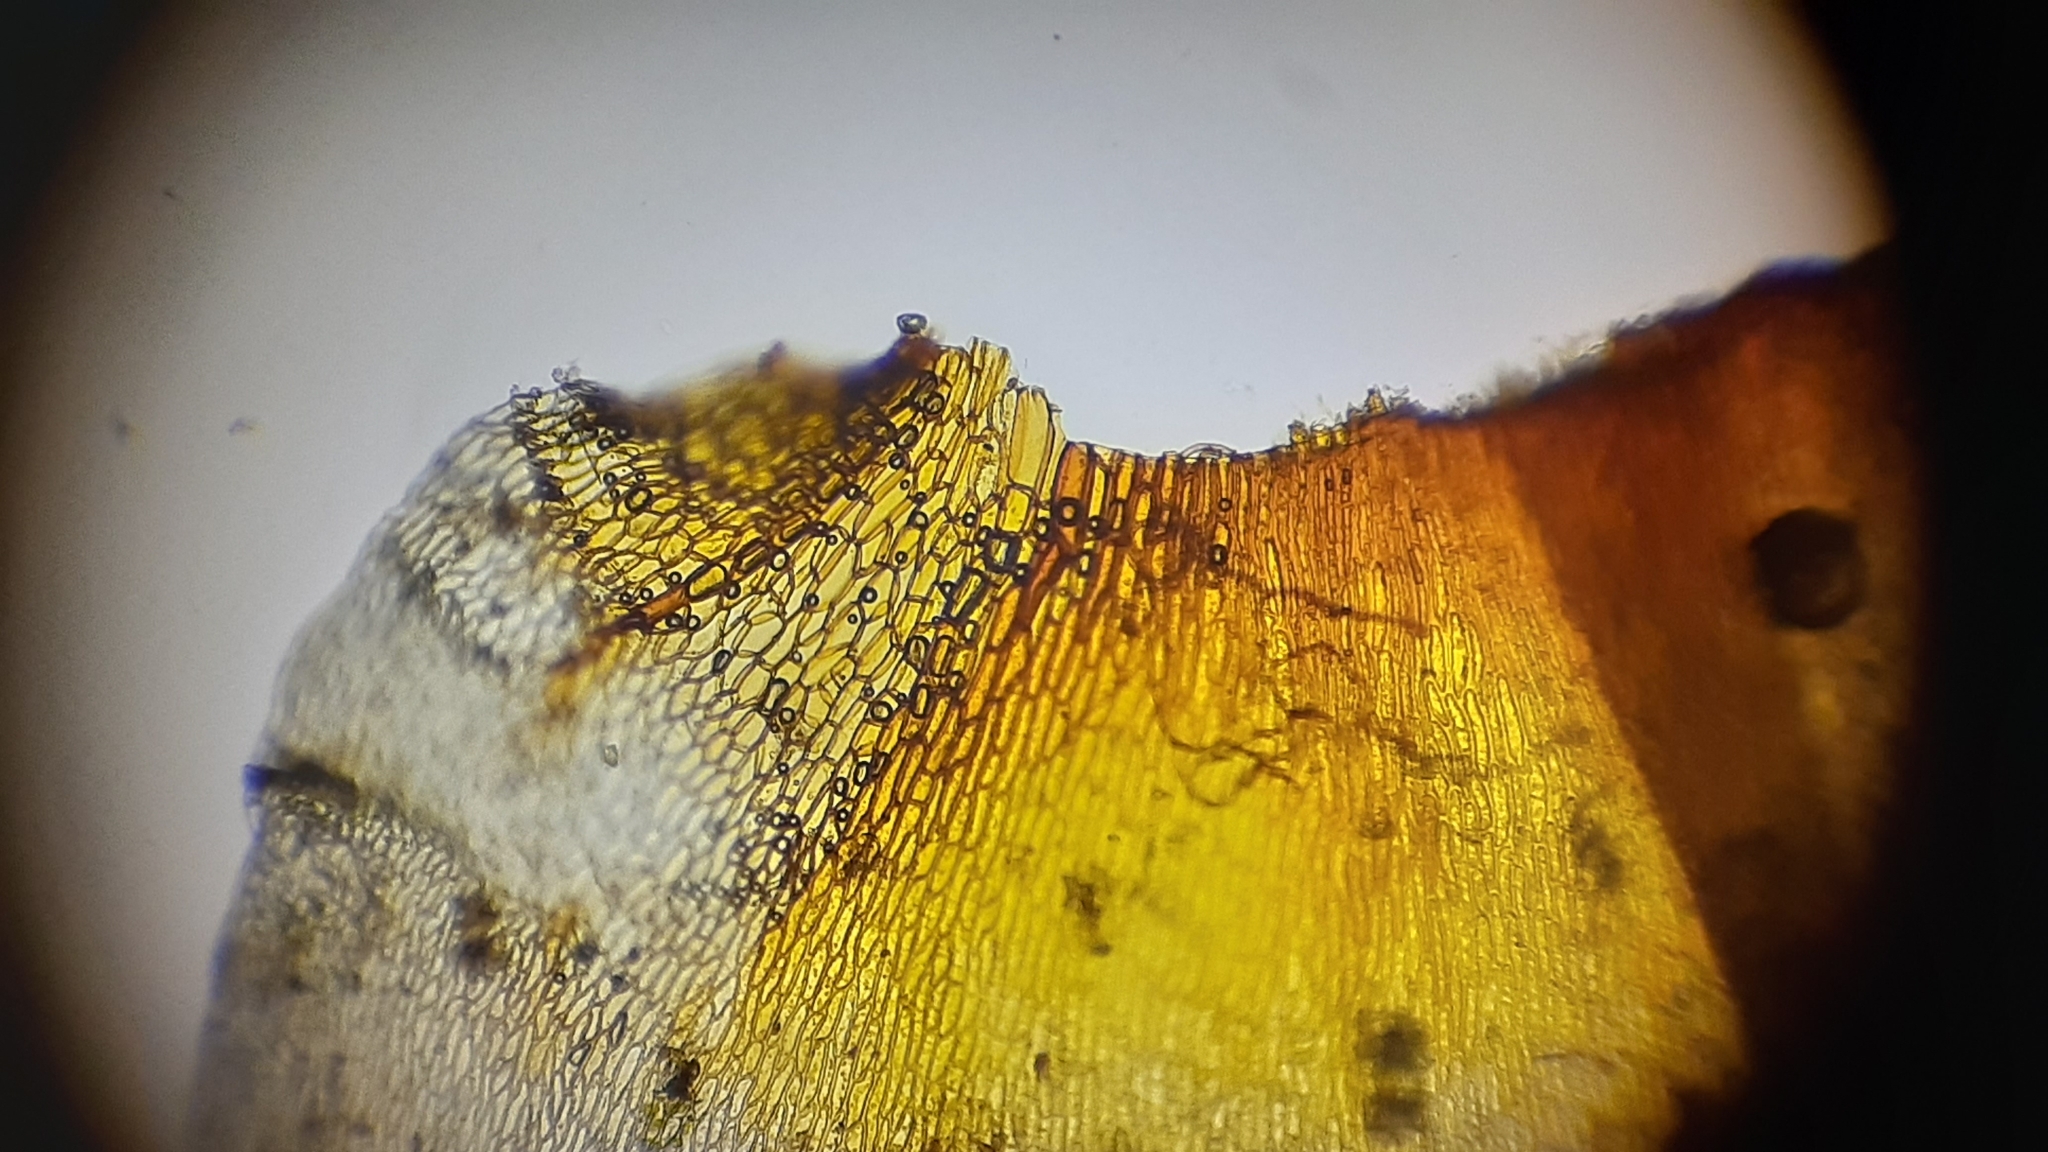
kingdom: Plantae
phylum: Bryophyta
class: Bryopsida
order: Hypnales
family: Climaciaceae
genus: Climacium
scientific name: Climacium americanum
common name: American tree moss
